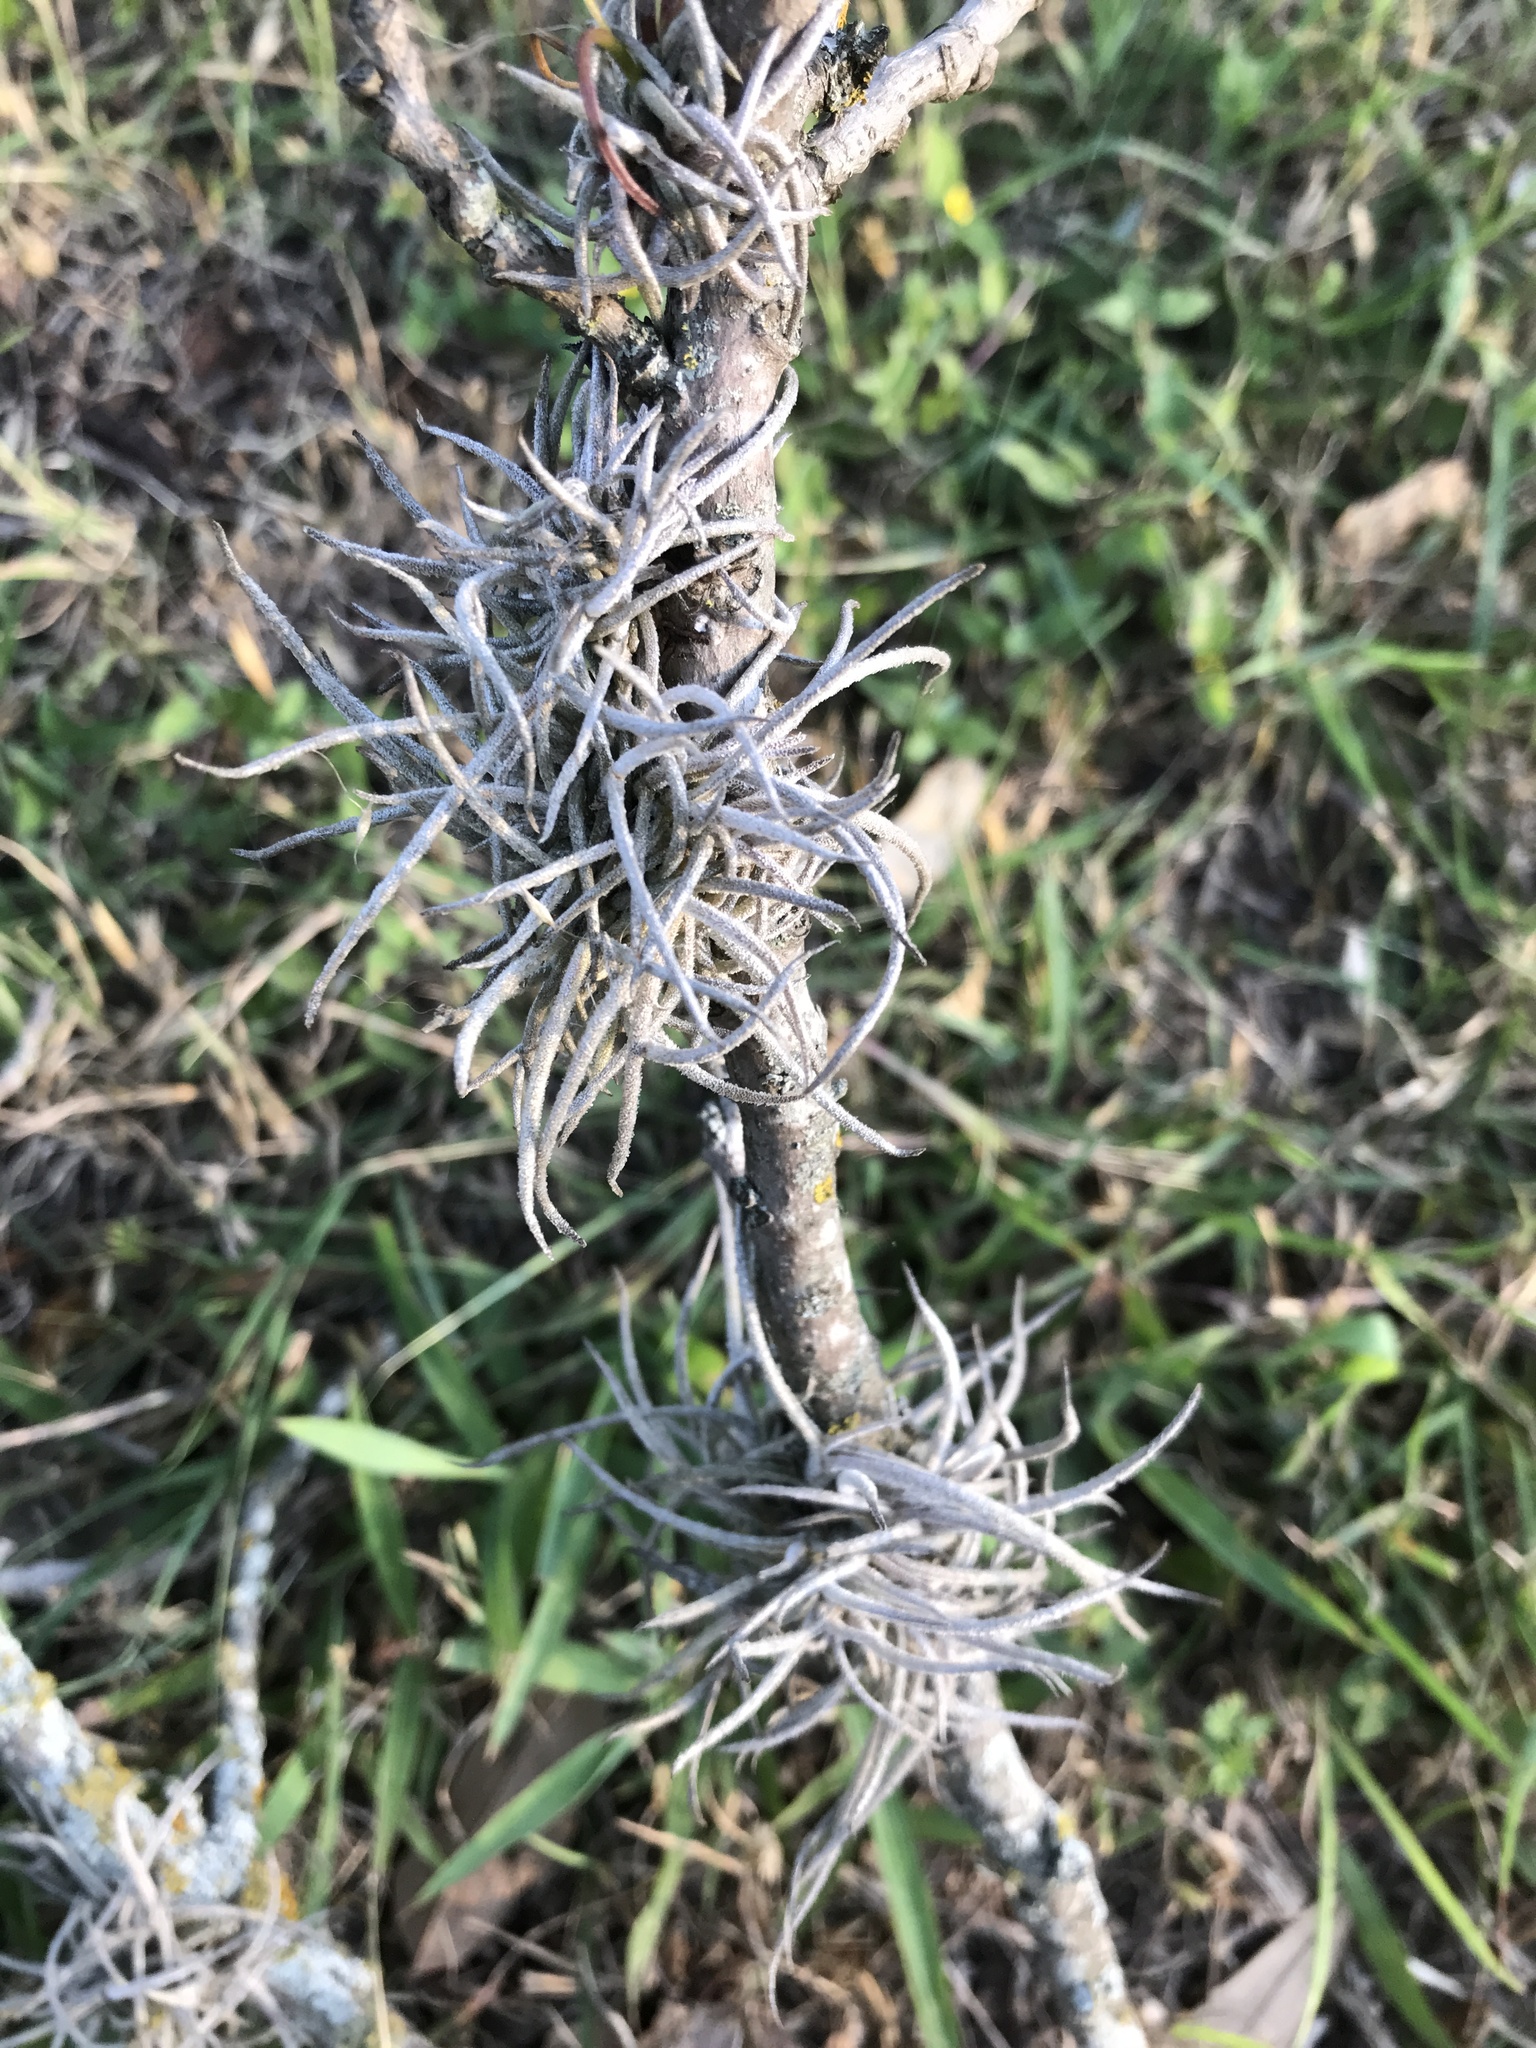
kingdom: Plantae
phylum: Tracheophyta
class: Liliopsida
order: Poales
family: Bromeliaceae
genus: Tillandsia
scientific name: Tillandsia recurvata
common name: Small ballmoss
